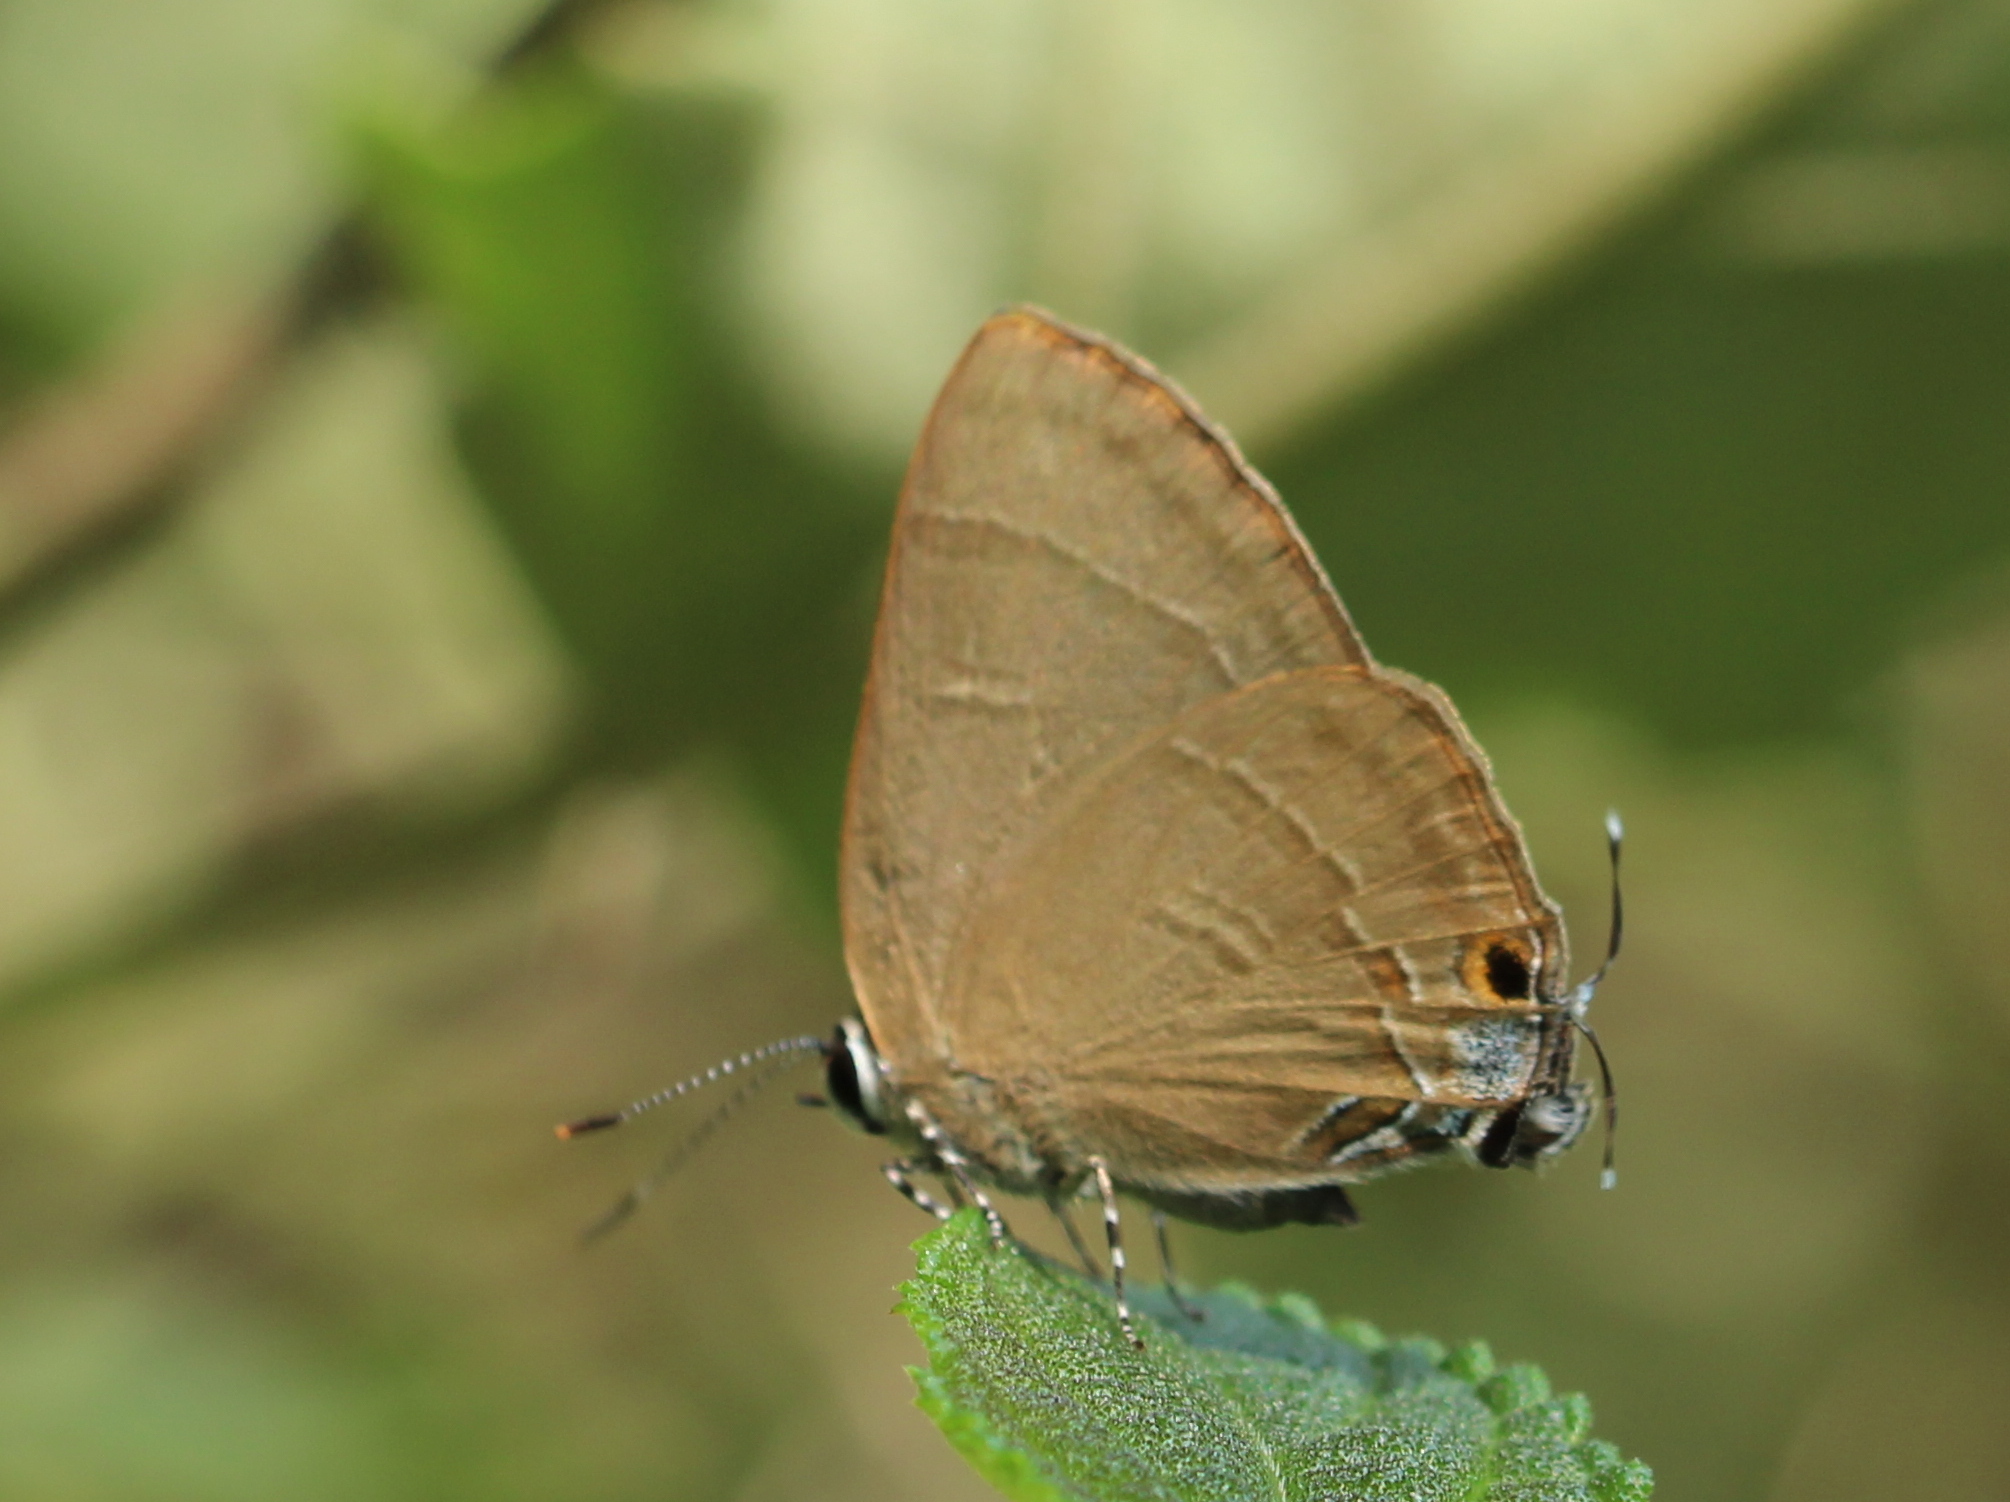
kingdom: Animalia
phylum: Arthropoda
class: Insecta
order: Lepidoptera
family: Lycaenidae
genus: Rapala
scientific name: Rapala manea
